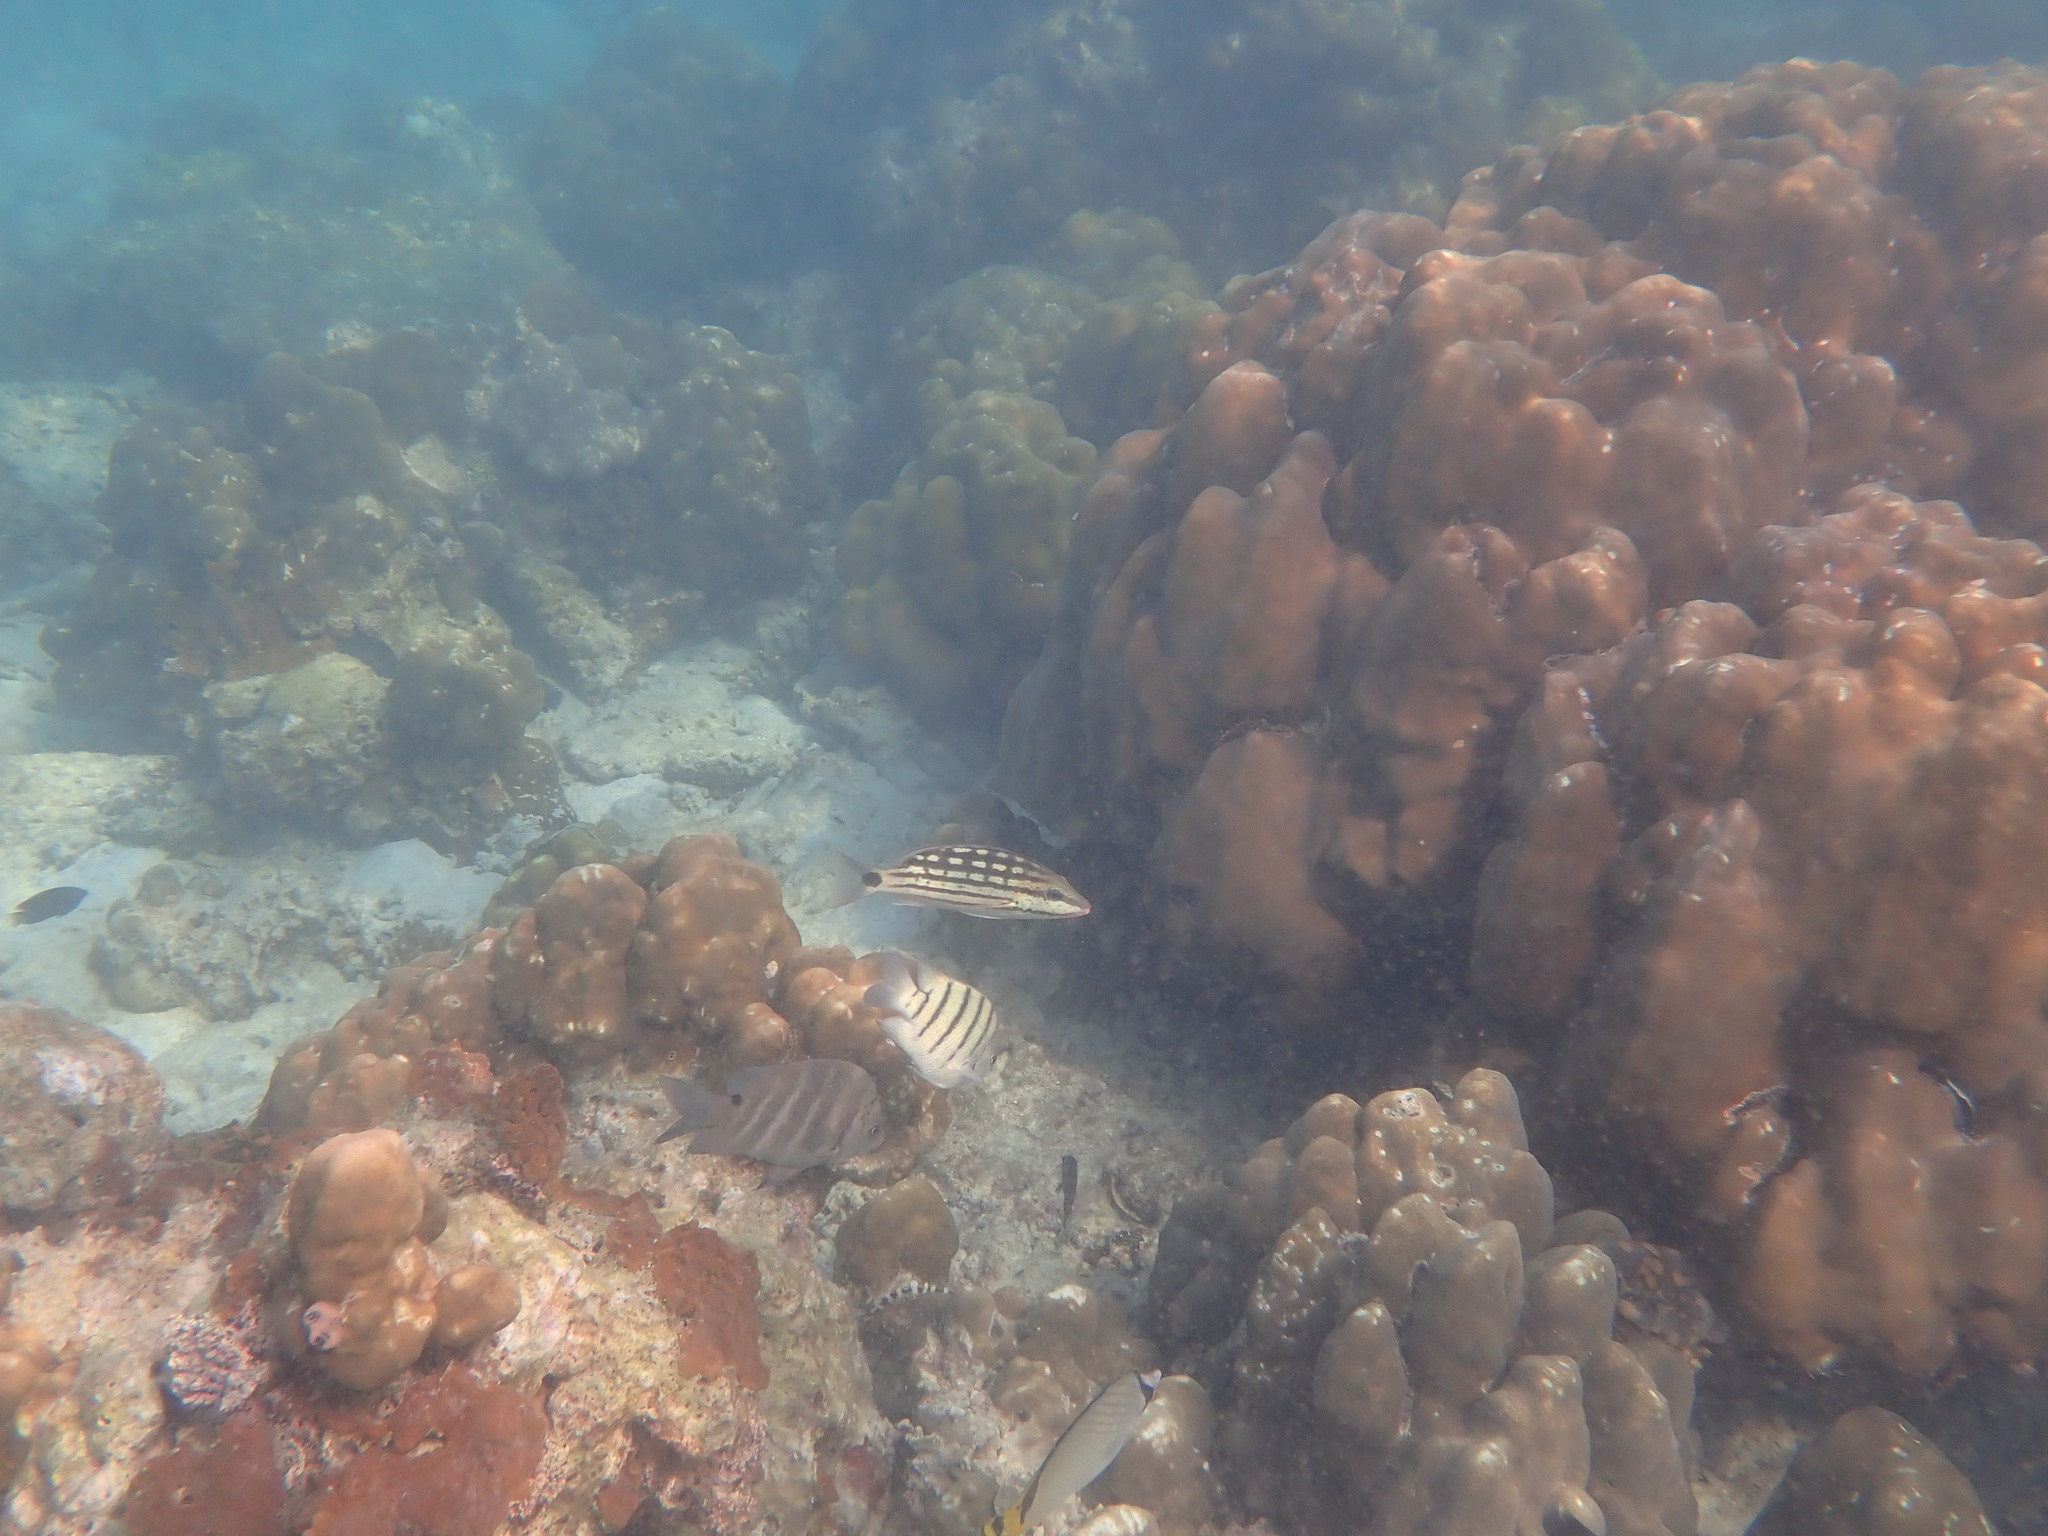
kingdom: Animalia
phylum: Chordata
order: Perciformes
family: Lutjanidae
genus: Lutjanus
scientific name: Lutjanus decussatus
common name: Checkered snapper
